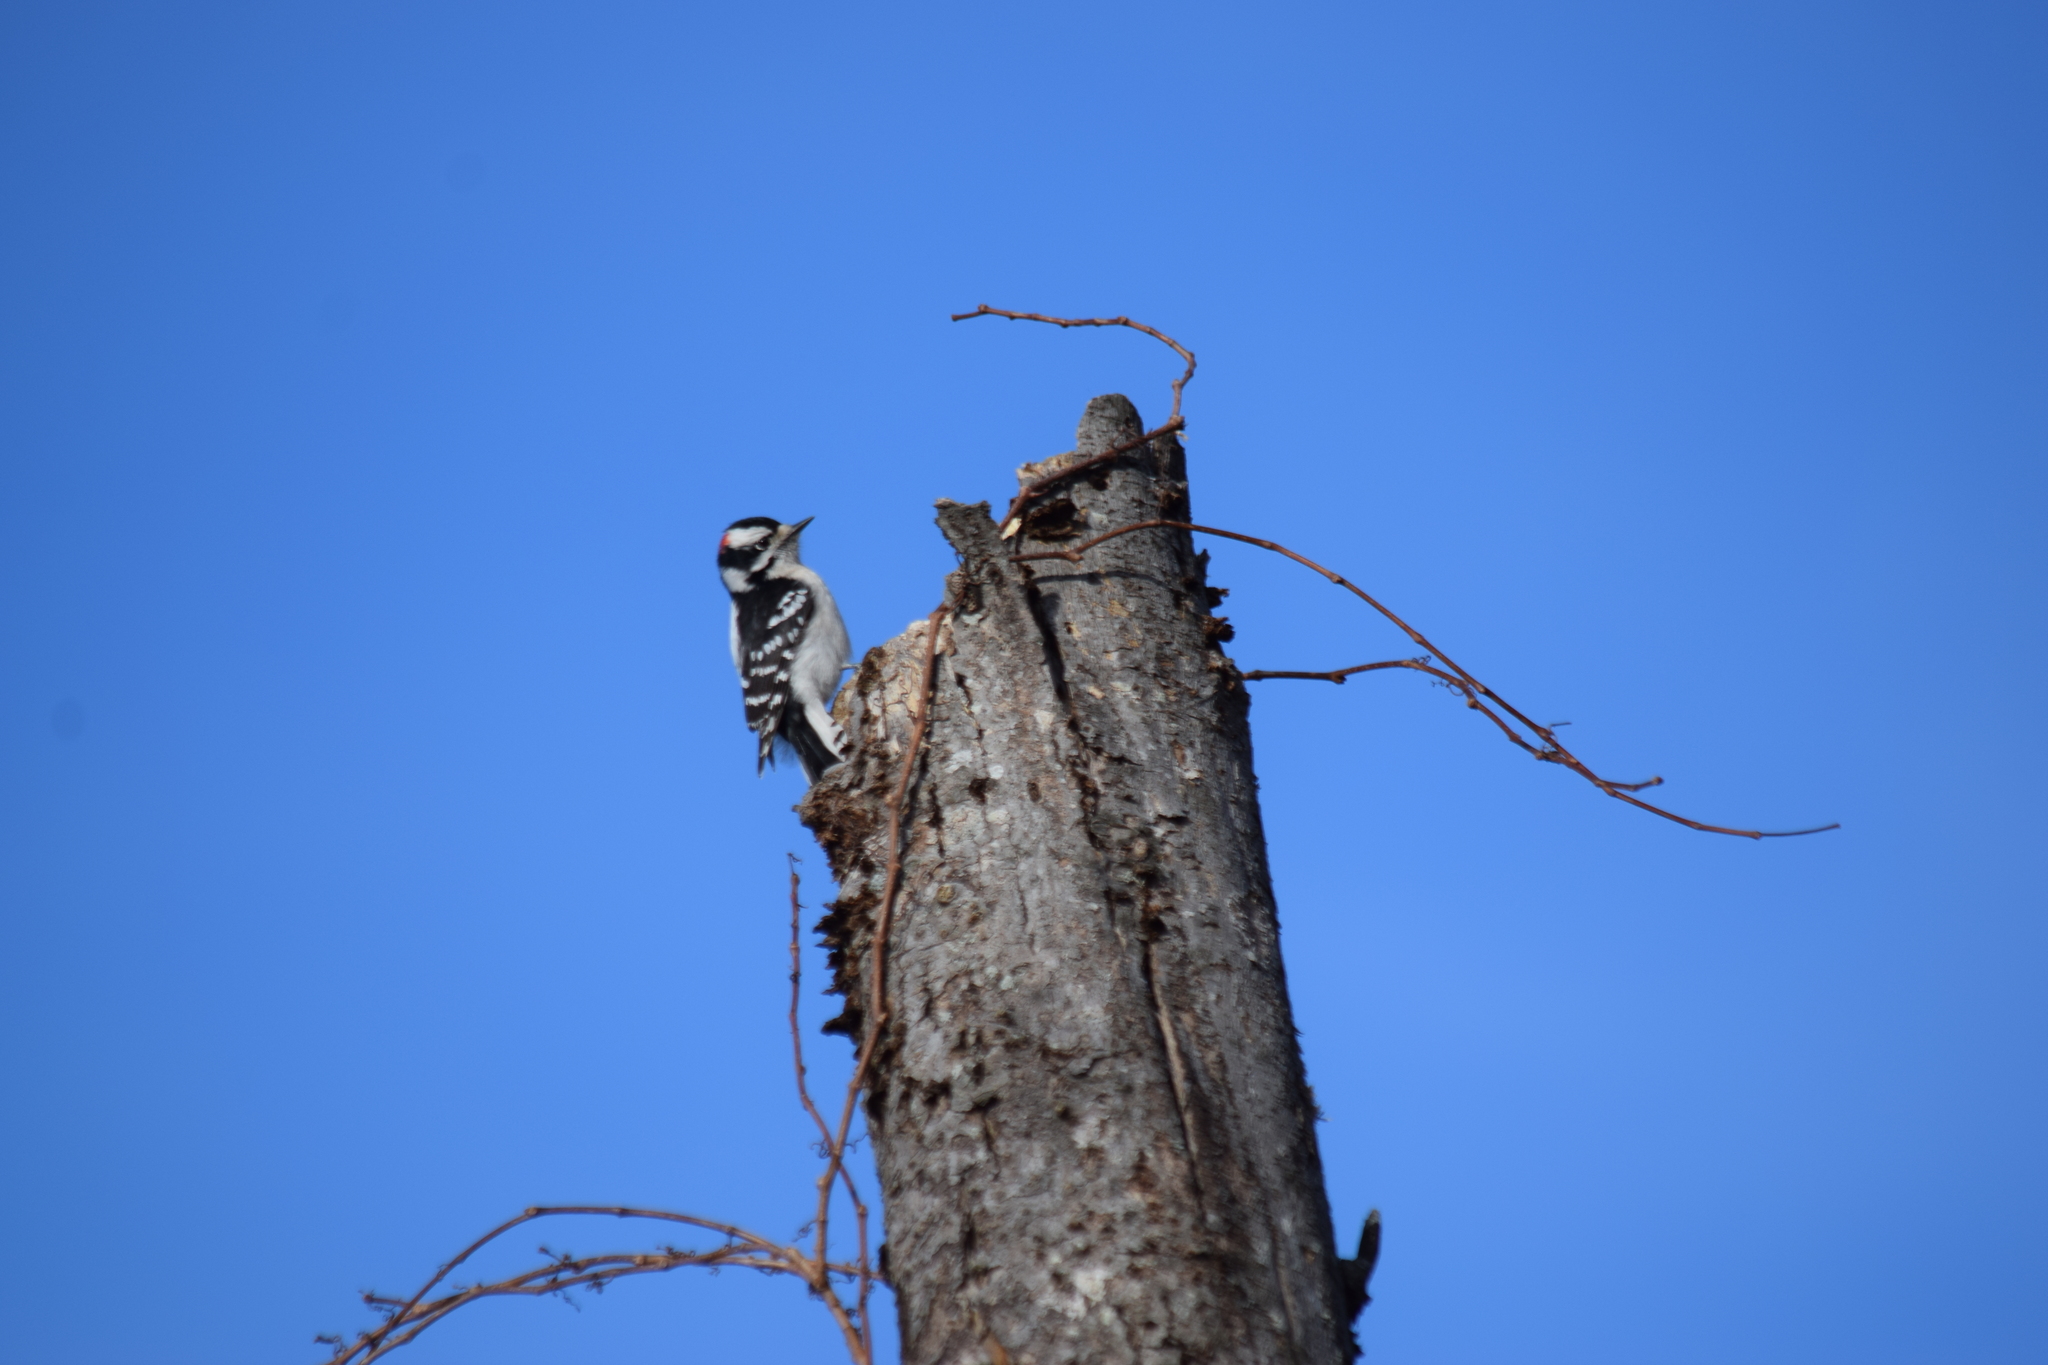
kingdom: Animalia
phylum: Chordata
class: Aves
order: Piciformes
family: Picidae
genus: Dryobates
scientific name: Dryobates pubescens
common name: Downy woodpecker
